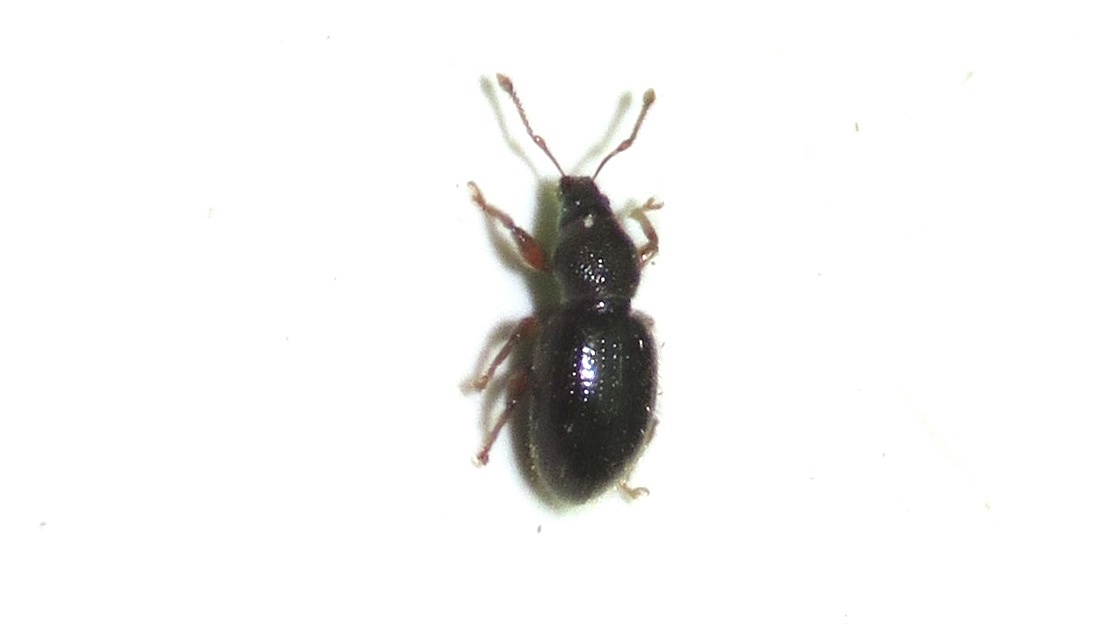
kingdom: Animalia
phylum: Arthropoda
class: Insecta
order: Coleoptera
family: Curculionidae
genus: Exomias
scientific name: Exomias pellucidus
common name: Hairy spider weevil
